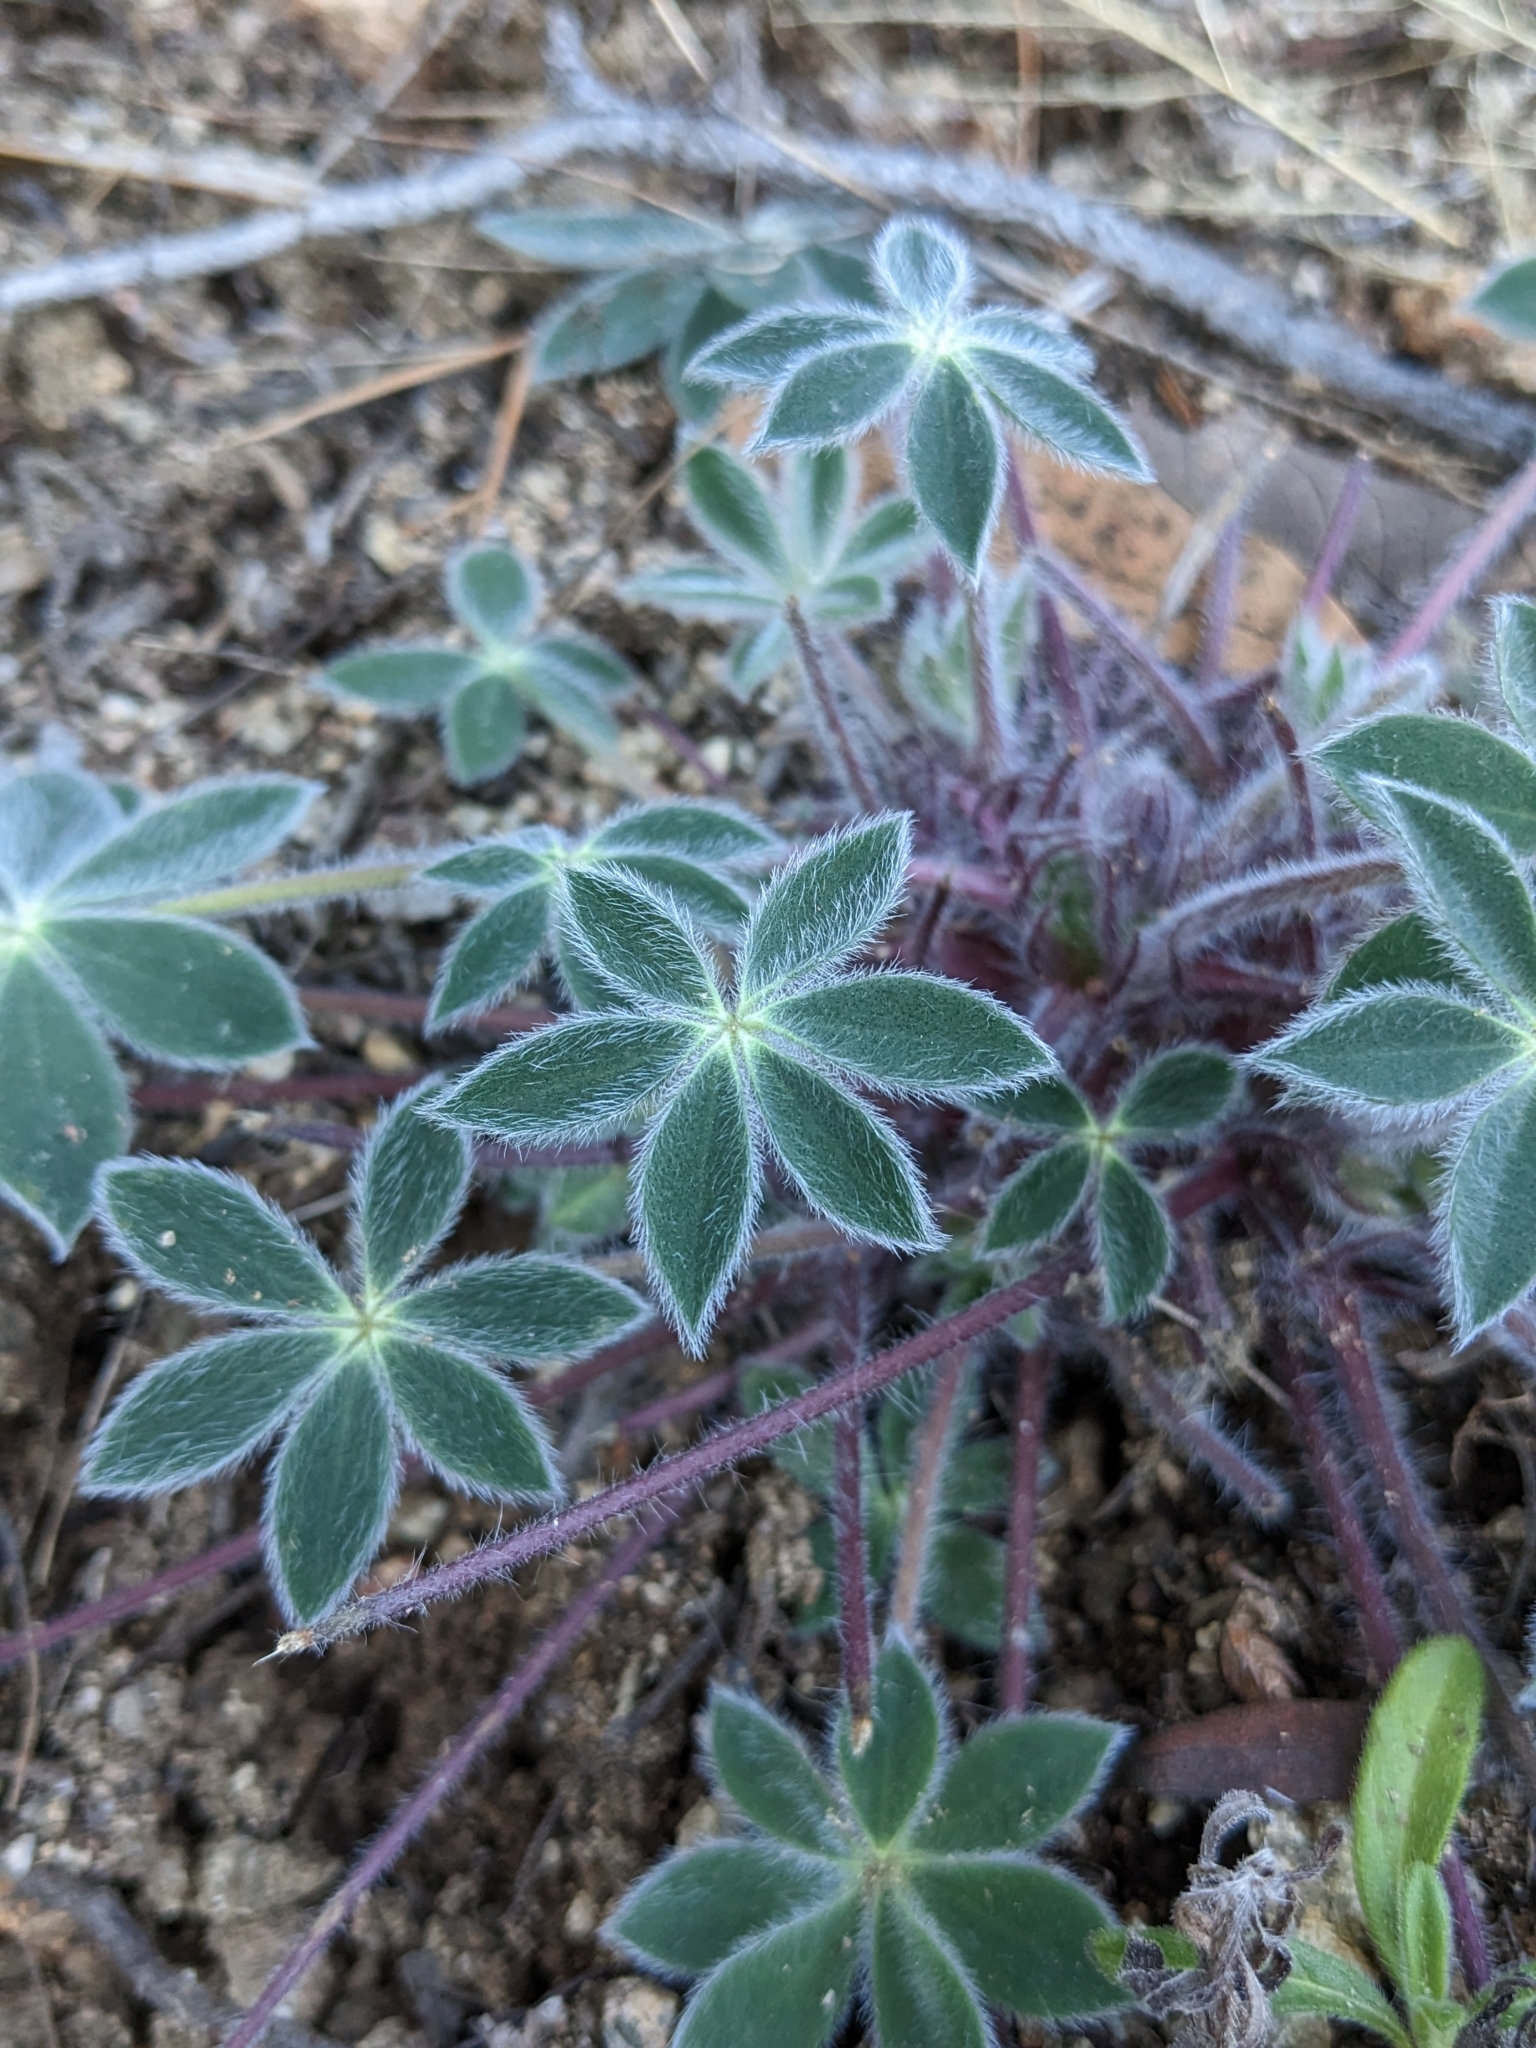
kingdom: Plantae
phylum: Tracheophyta
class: Magnoliopsida
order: Fabales
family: Fabaceae
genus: Lupinus
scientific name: Lupinus huachucanus
